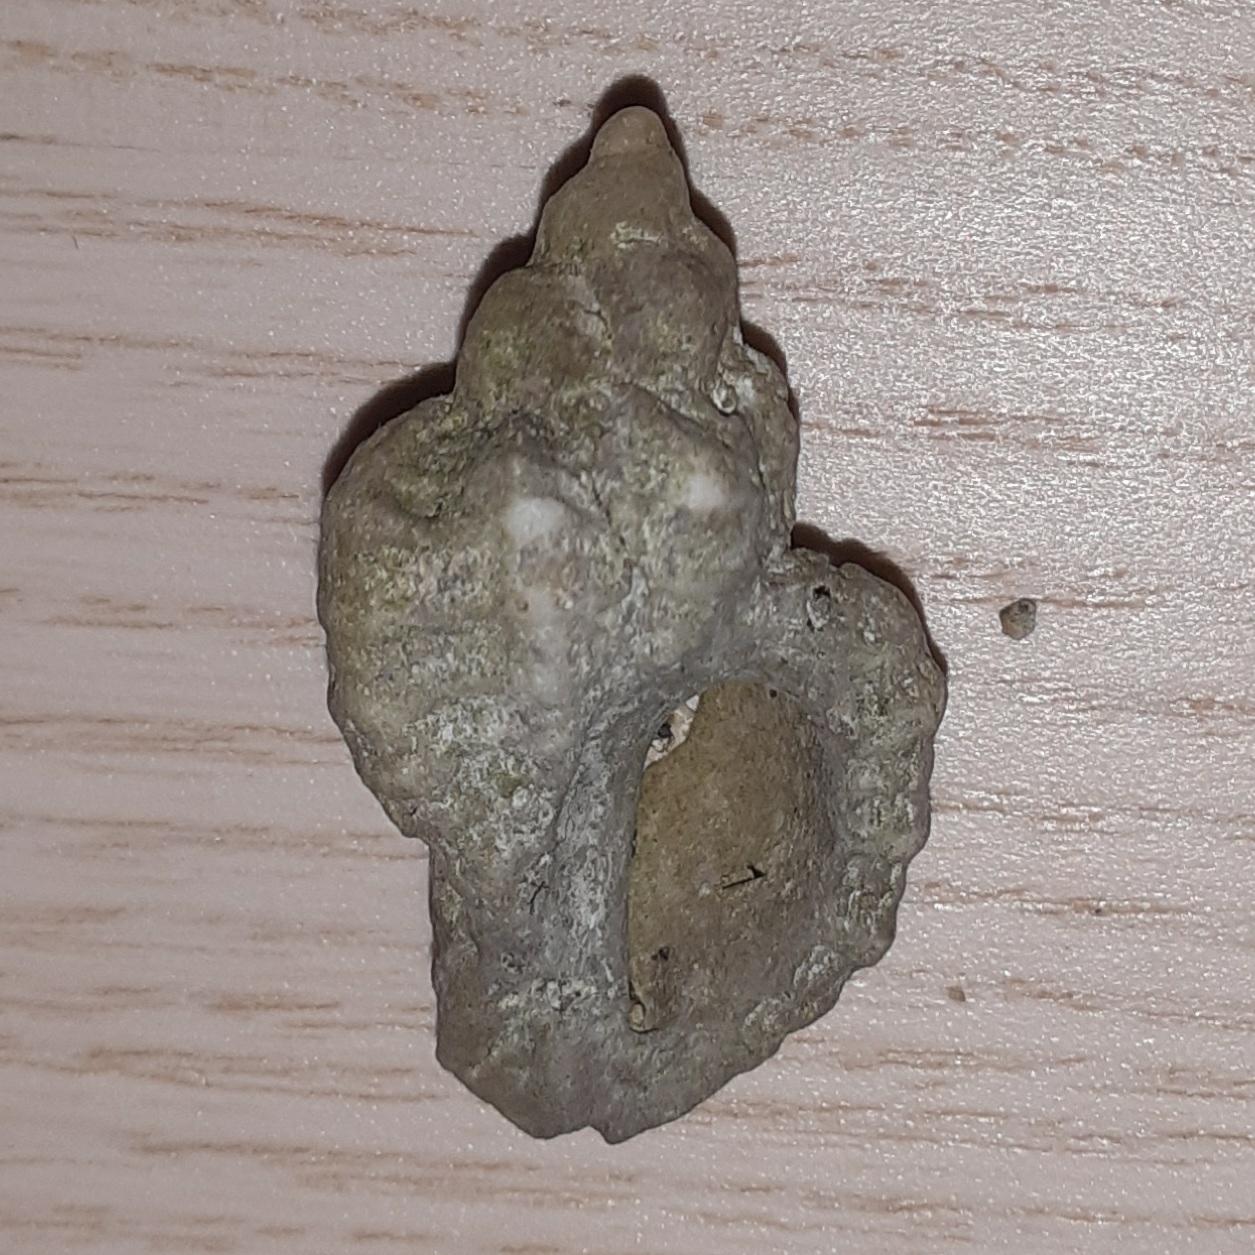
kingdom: Animalia
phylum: Mollusca
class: Gastropoda
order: Neogastropoda
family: Muricidae
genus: Ocenebra
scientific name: Ocenebra erinaceus
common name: European sting winkle
